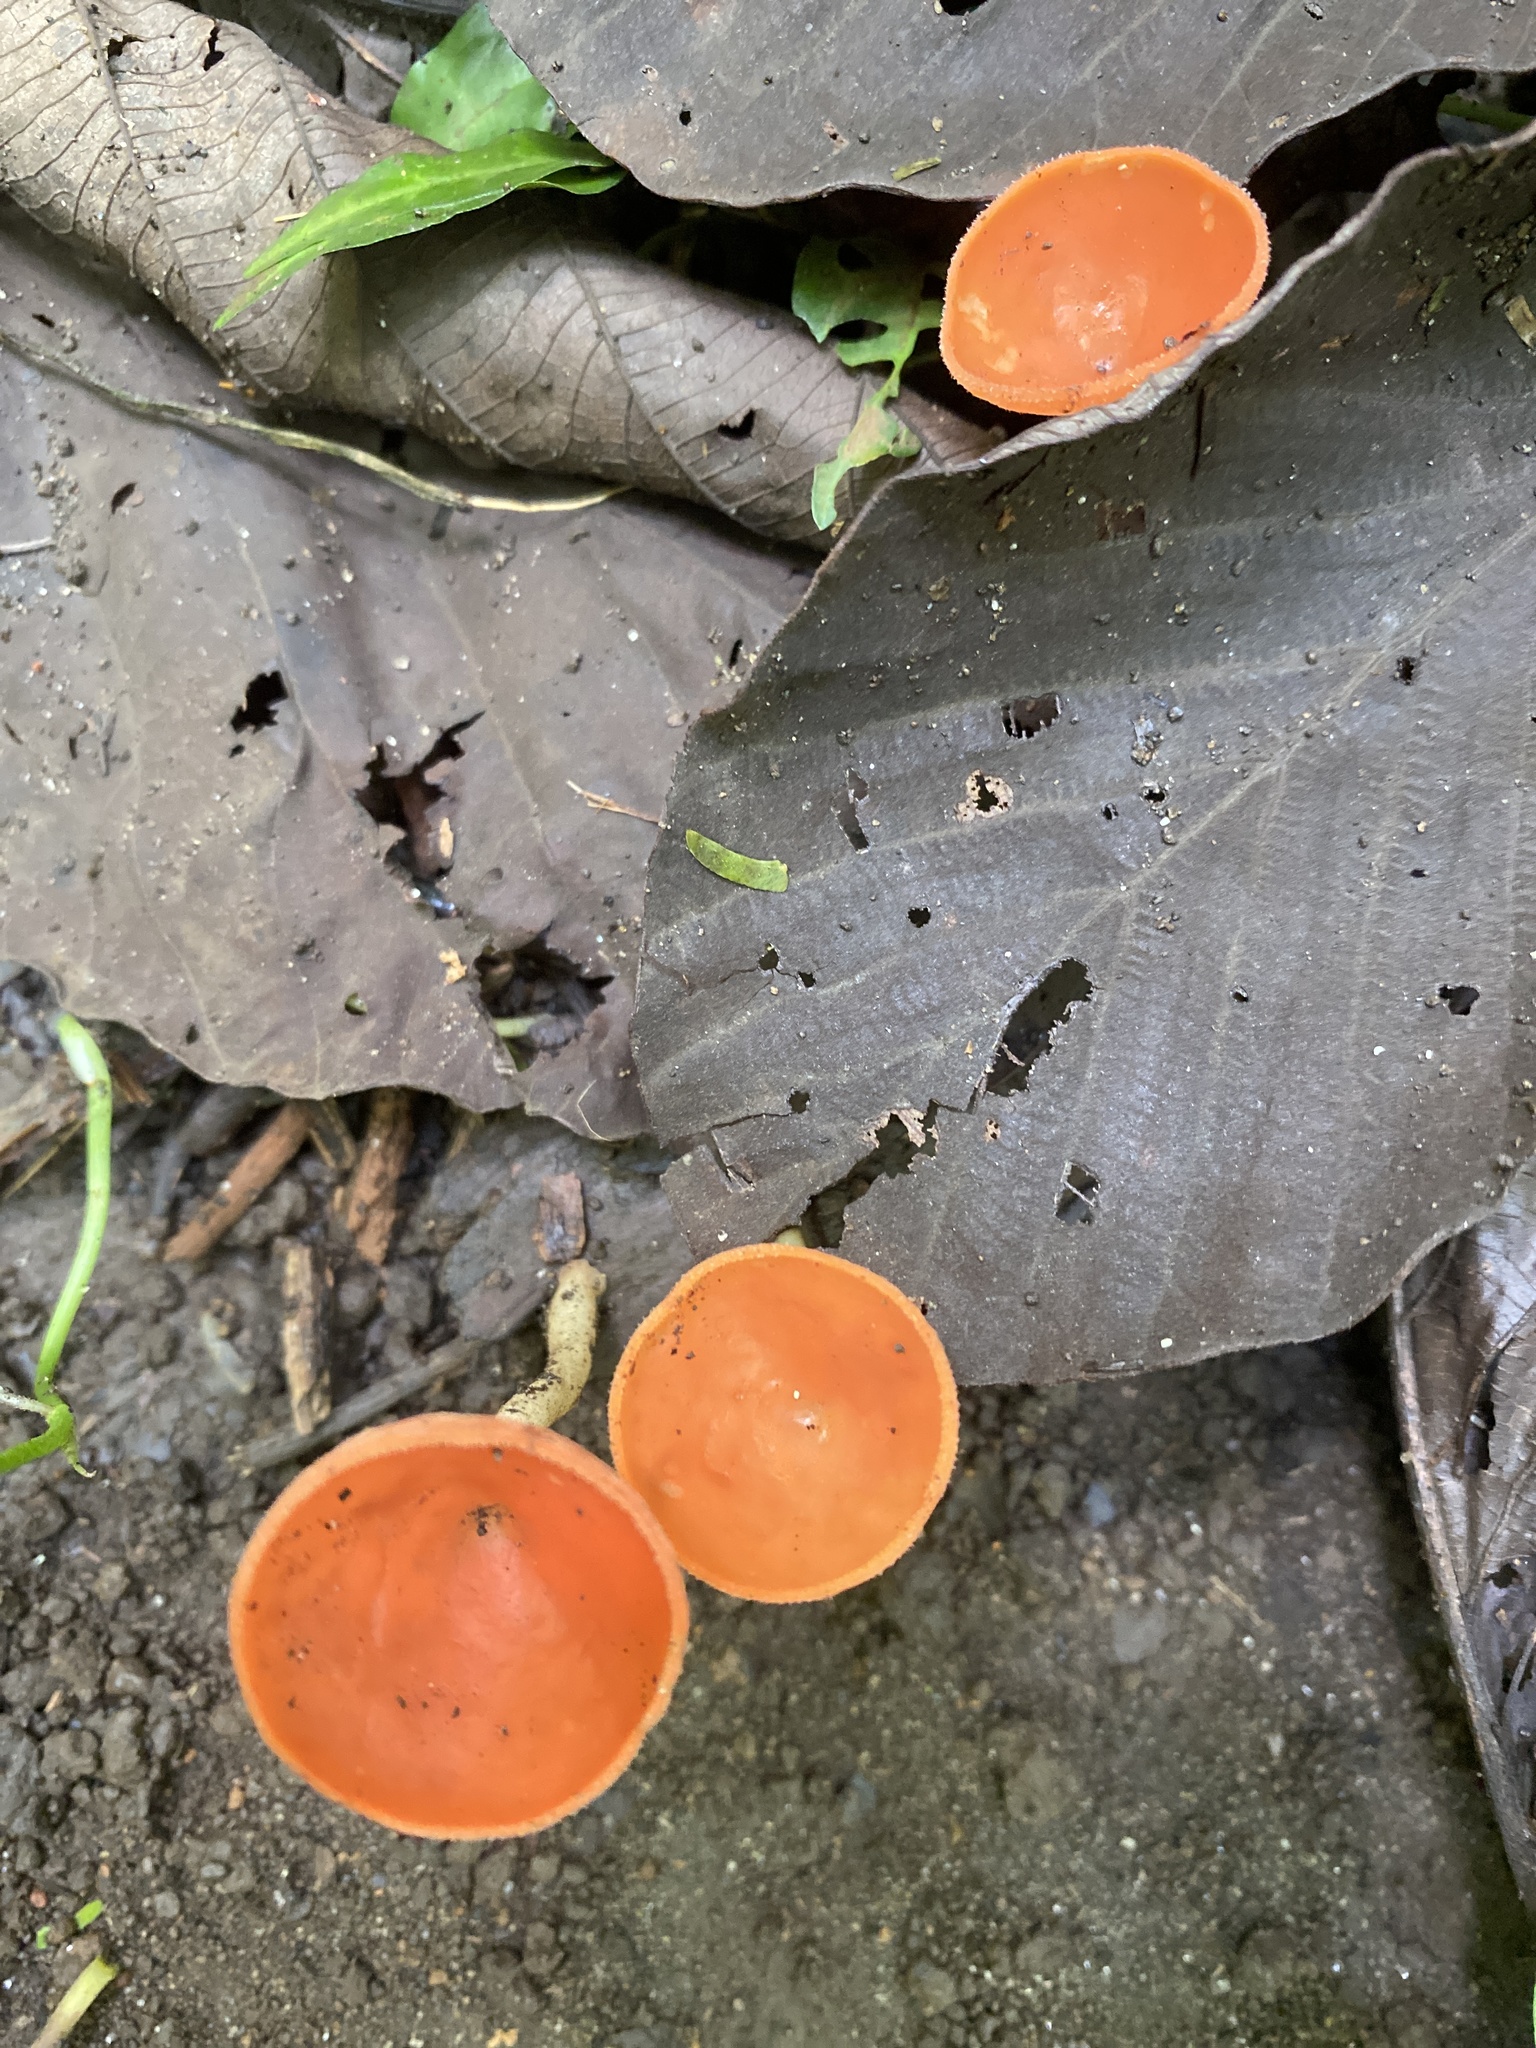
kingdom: Fungi
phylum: Ascomycota
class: Pezizomycetes
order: Pezizales
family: Sarcoscyphaceae
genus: Cookeina
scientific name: Cookeina speciosa
